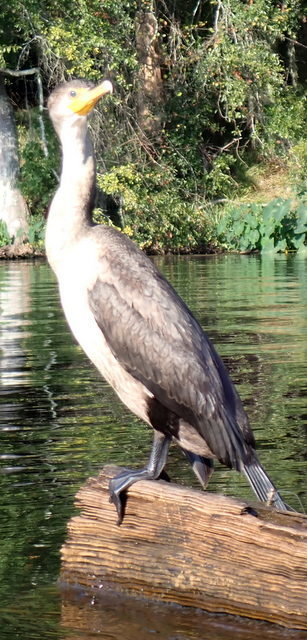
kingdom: Animalia
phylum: Chordata
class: Aves
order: Suliformes
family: Phalacrocoracidae
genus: Phalacrocorax
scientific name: Phalacrocorax auritus
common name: Double-crested cormorant
